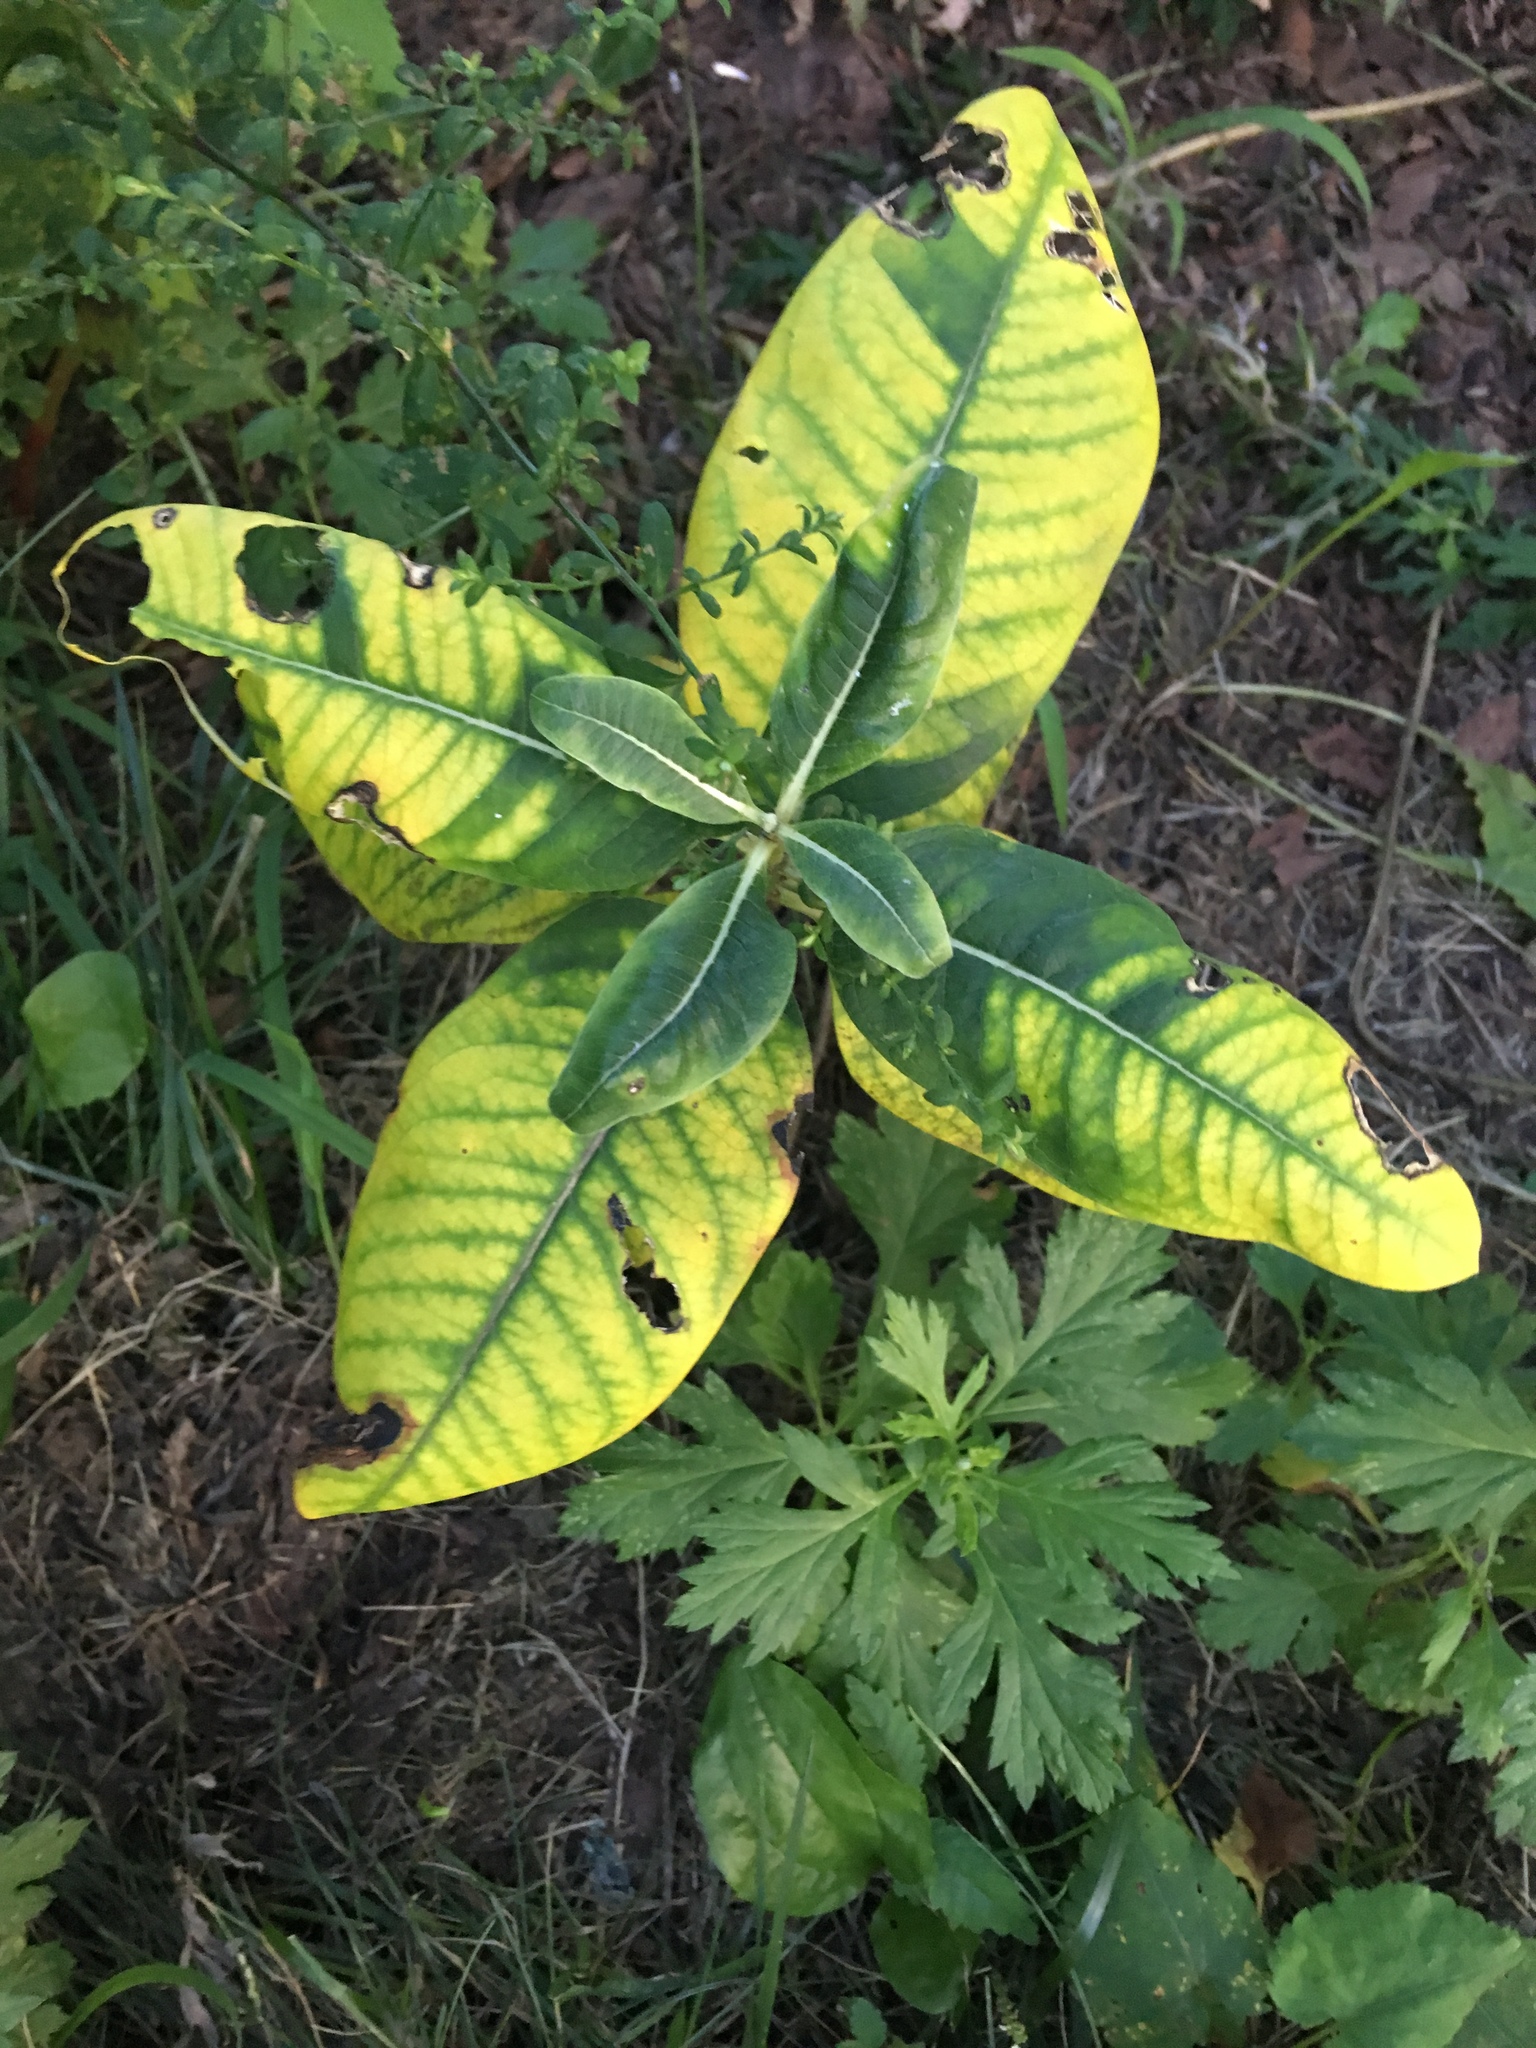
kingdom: Plantae
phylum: Tracheophyta
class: Magnoliopsida
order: Gentianales
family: Apocynaceae
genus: Asclepias
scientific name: Asclepias syriaca
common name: Common milkweed
